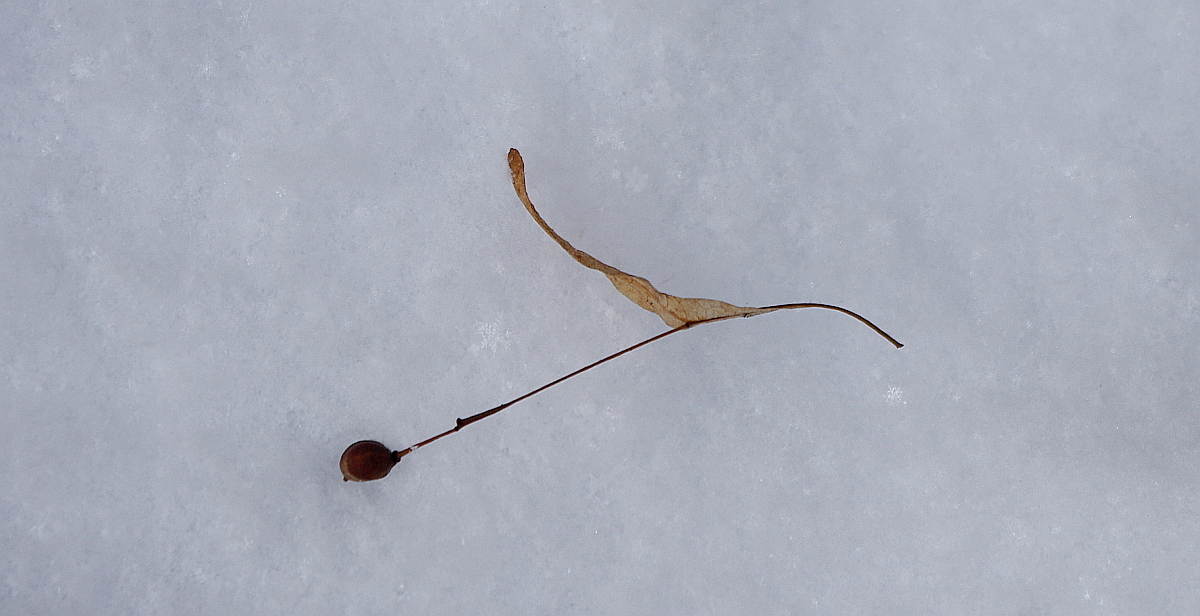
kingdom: Plantae
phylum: Tracheophyta
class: Magnoliopsida
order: Malvales
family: Malvaceae
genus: Tilia
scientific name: Tilia cordata
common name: Small-leaved lime
